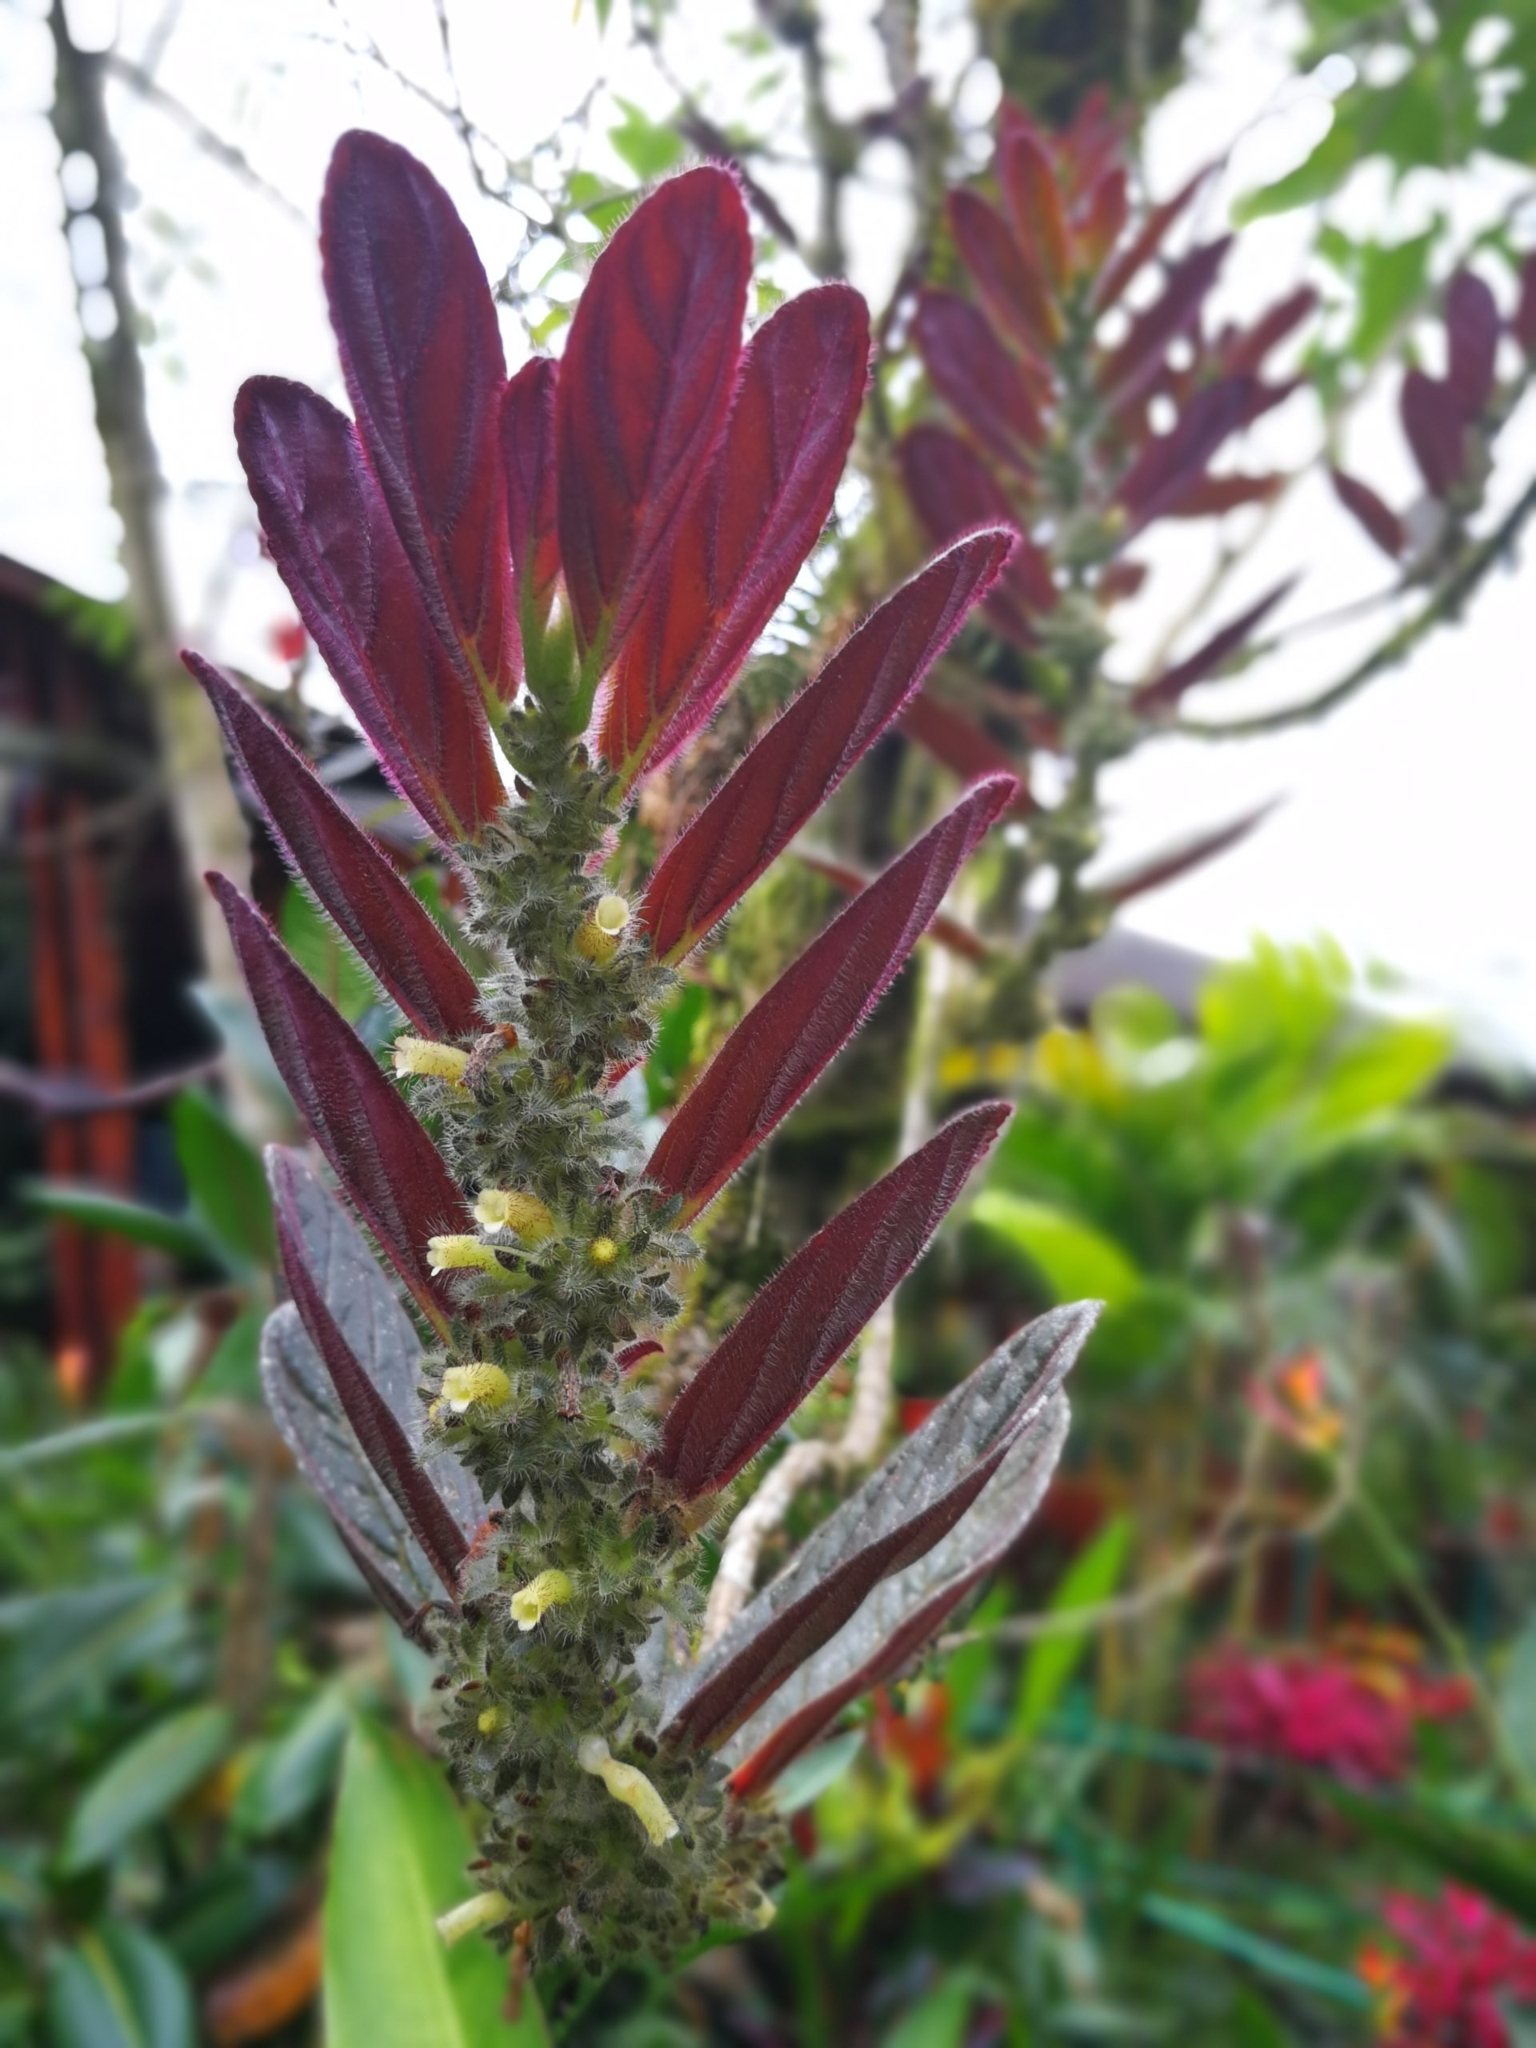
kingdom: Plantae
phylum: Tracheophyta
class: Magnoliopsida
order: Lamiales
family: Gesneriaceae
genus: Columnea
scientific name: Columnea spathulata
